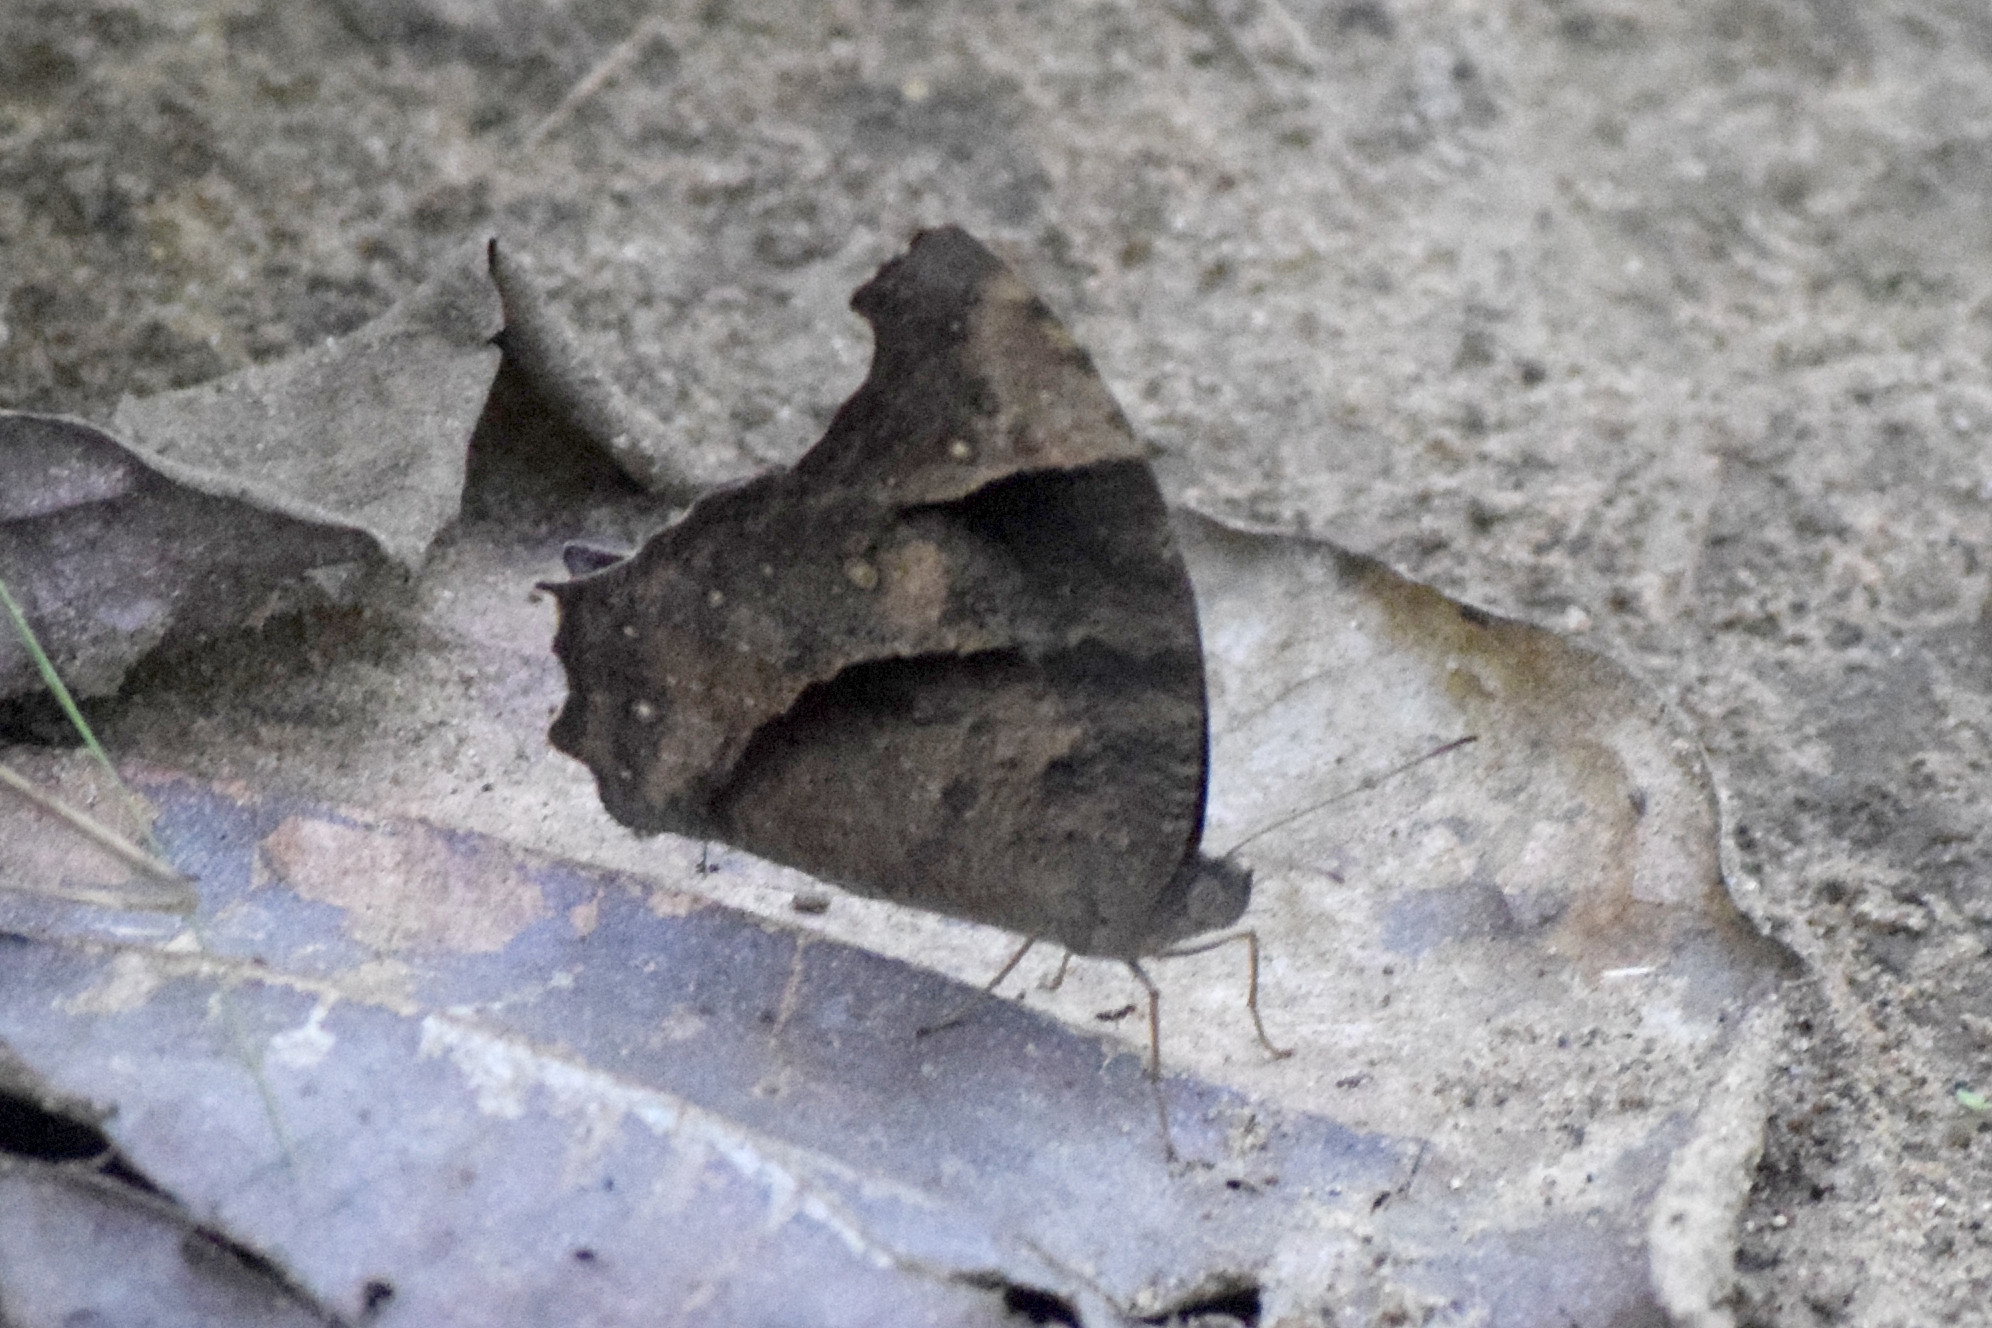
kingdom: Animalia
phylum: Arthropoda
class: Insecta
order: Lepidoptera
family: Nymphalidae
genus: Melanitis
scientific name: Melanitis leda
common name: Twilight brown
